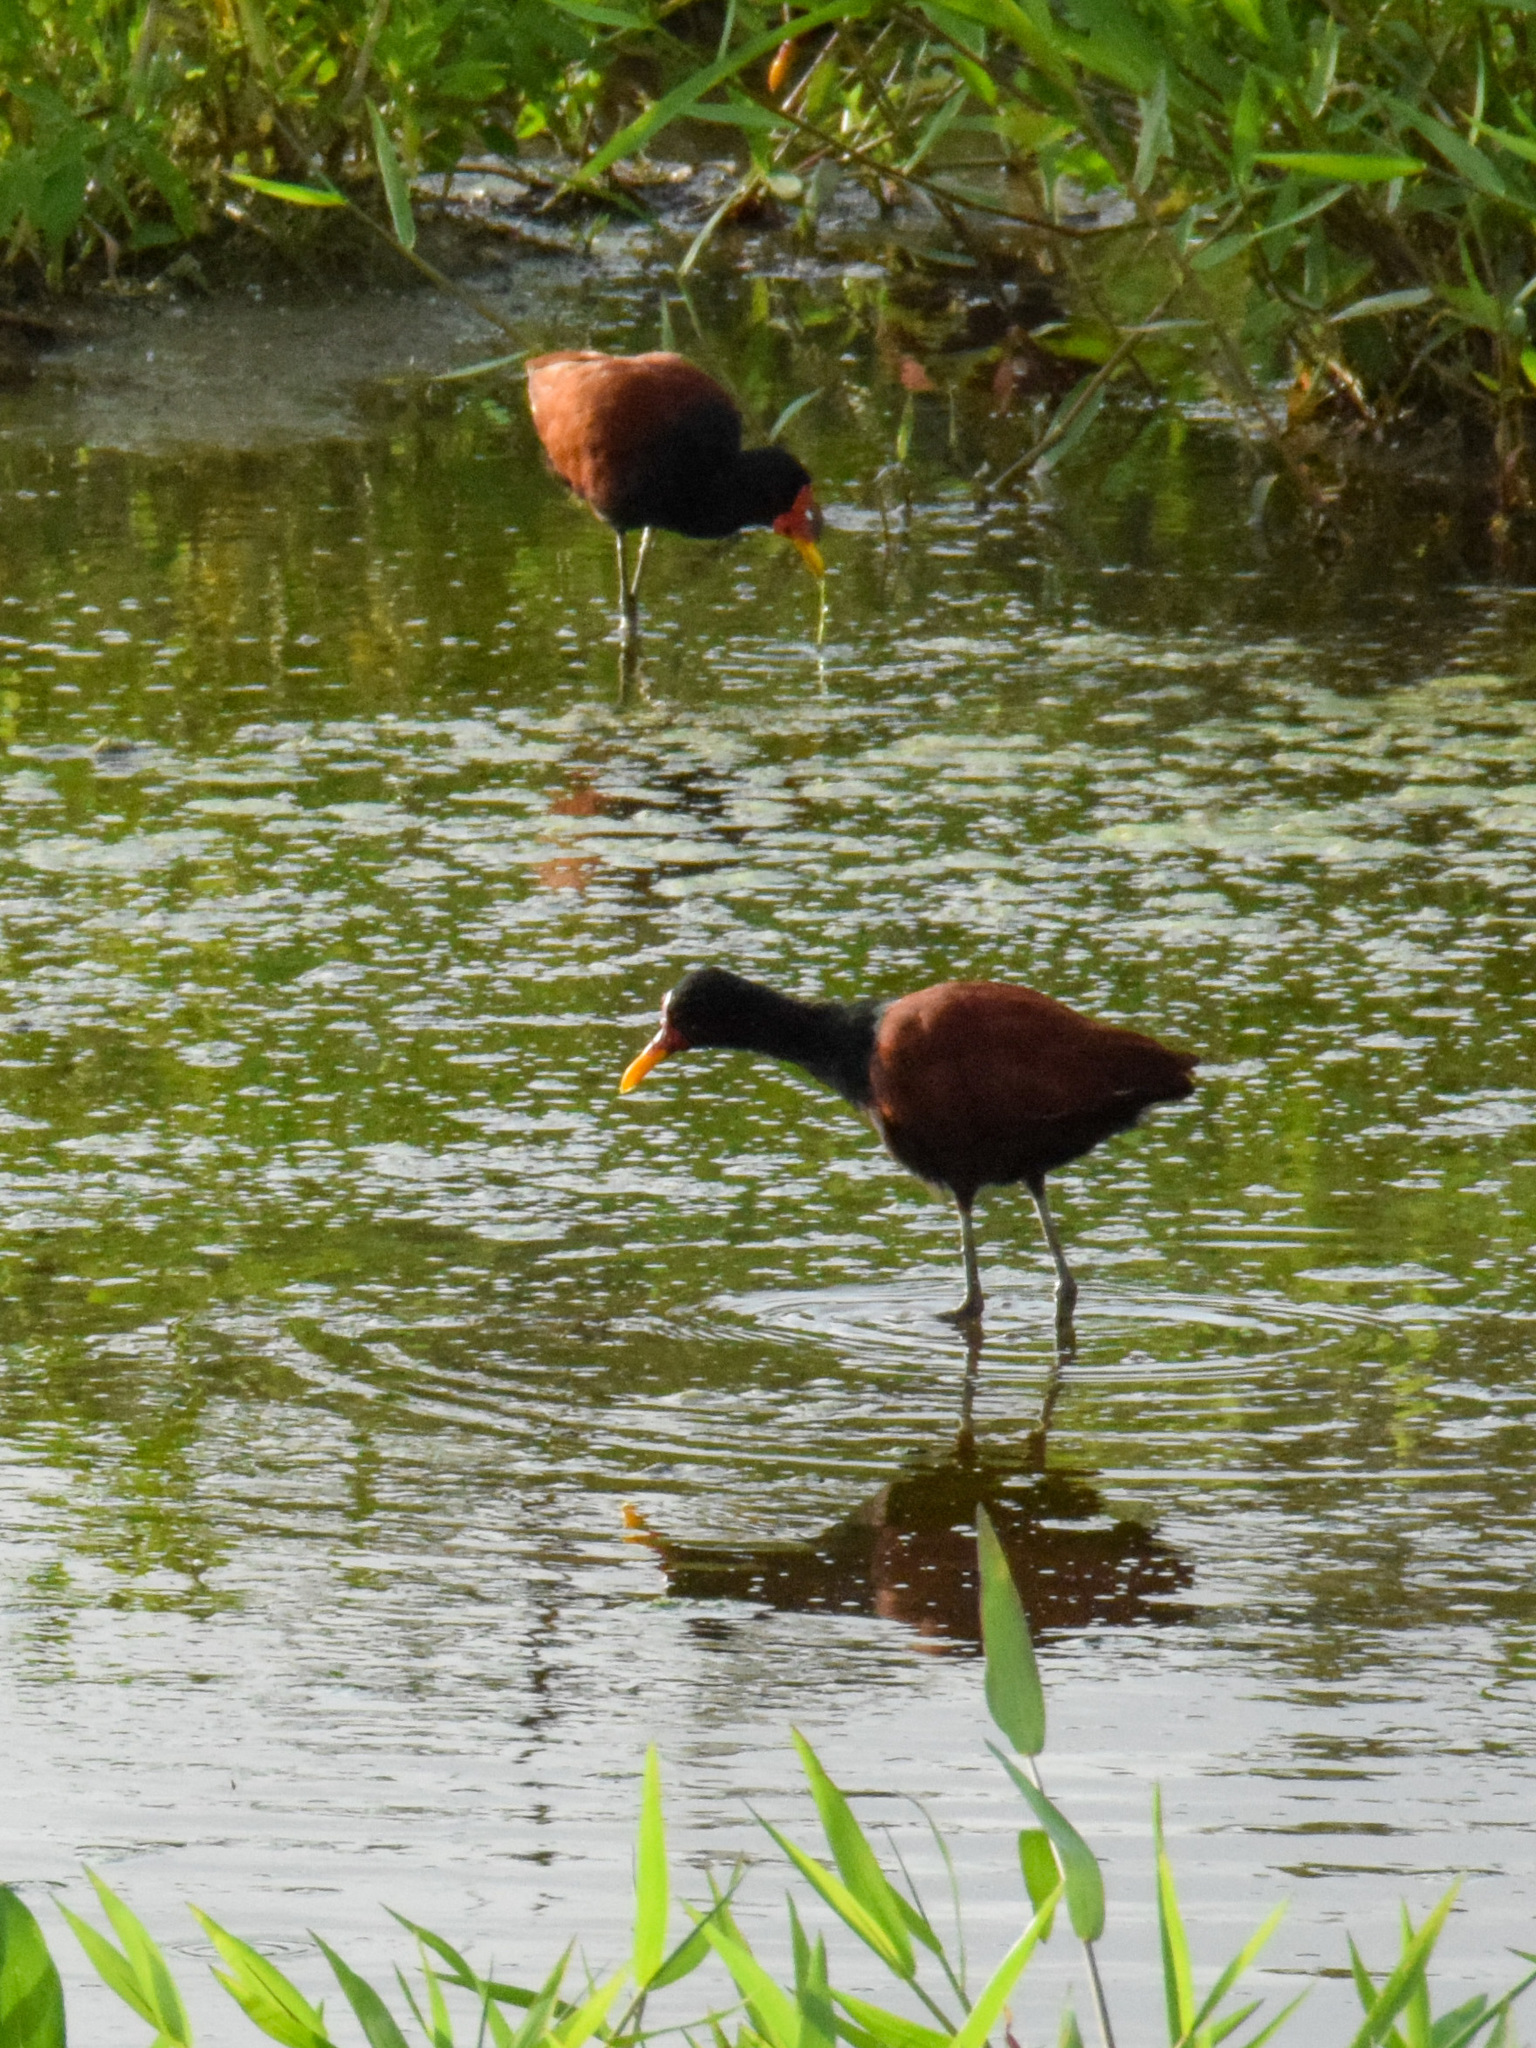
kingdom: Animalia
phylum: Chordata
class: Aves
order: Charadriiformes
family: Jacanidae
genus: Jacana
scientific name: Jacana jacana
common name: Wattled jacana
